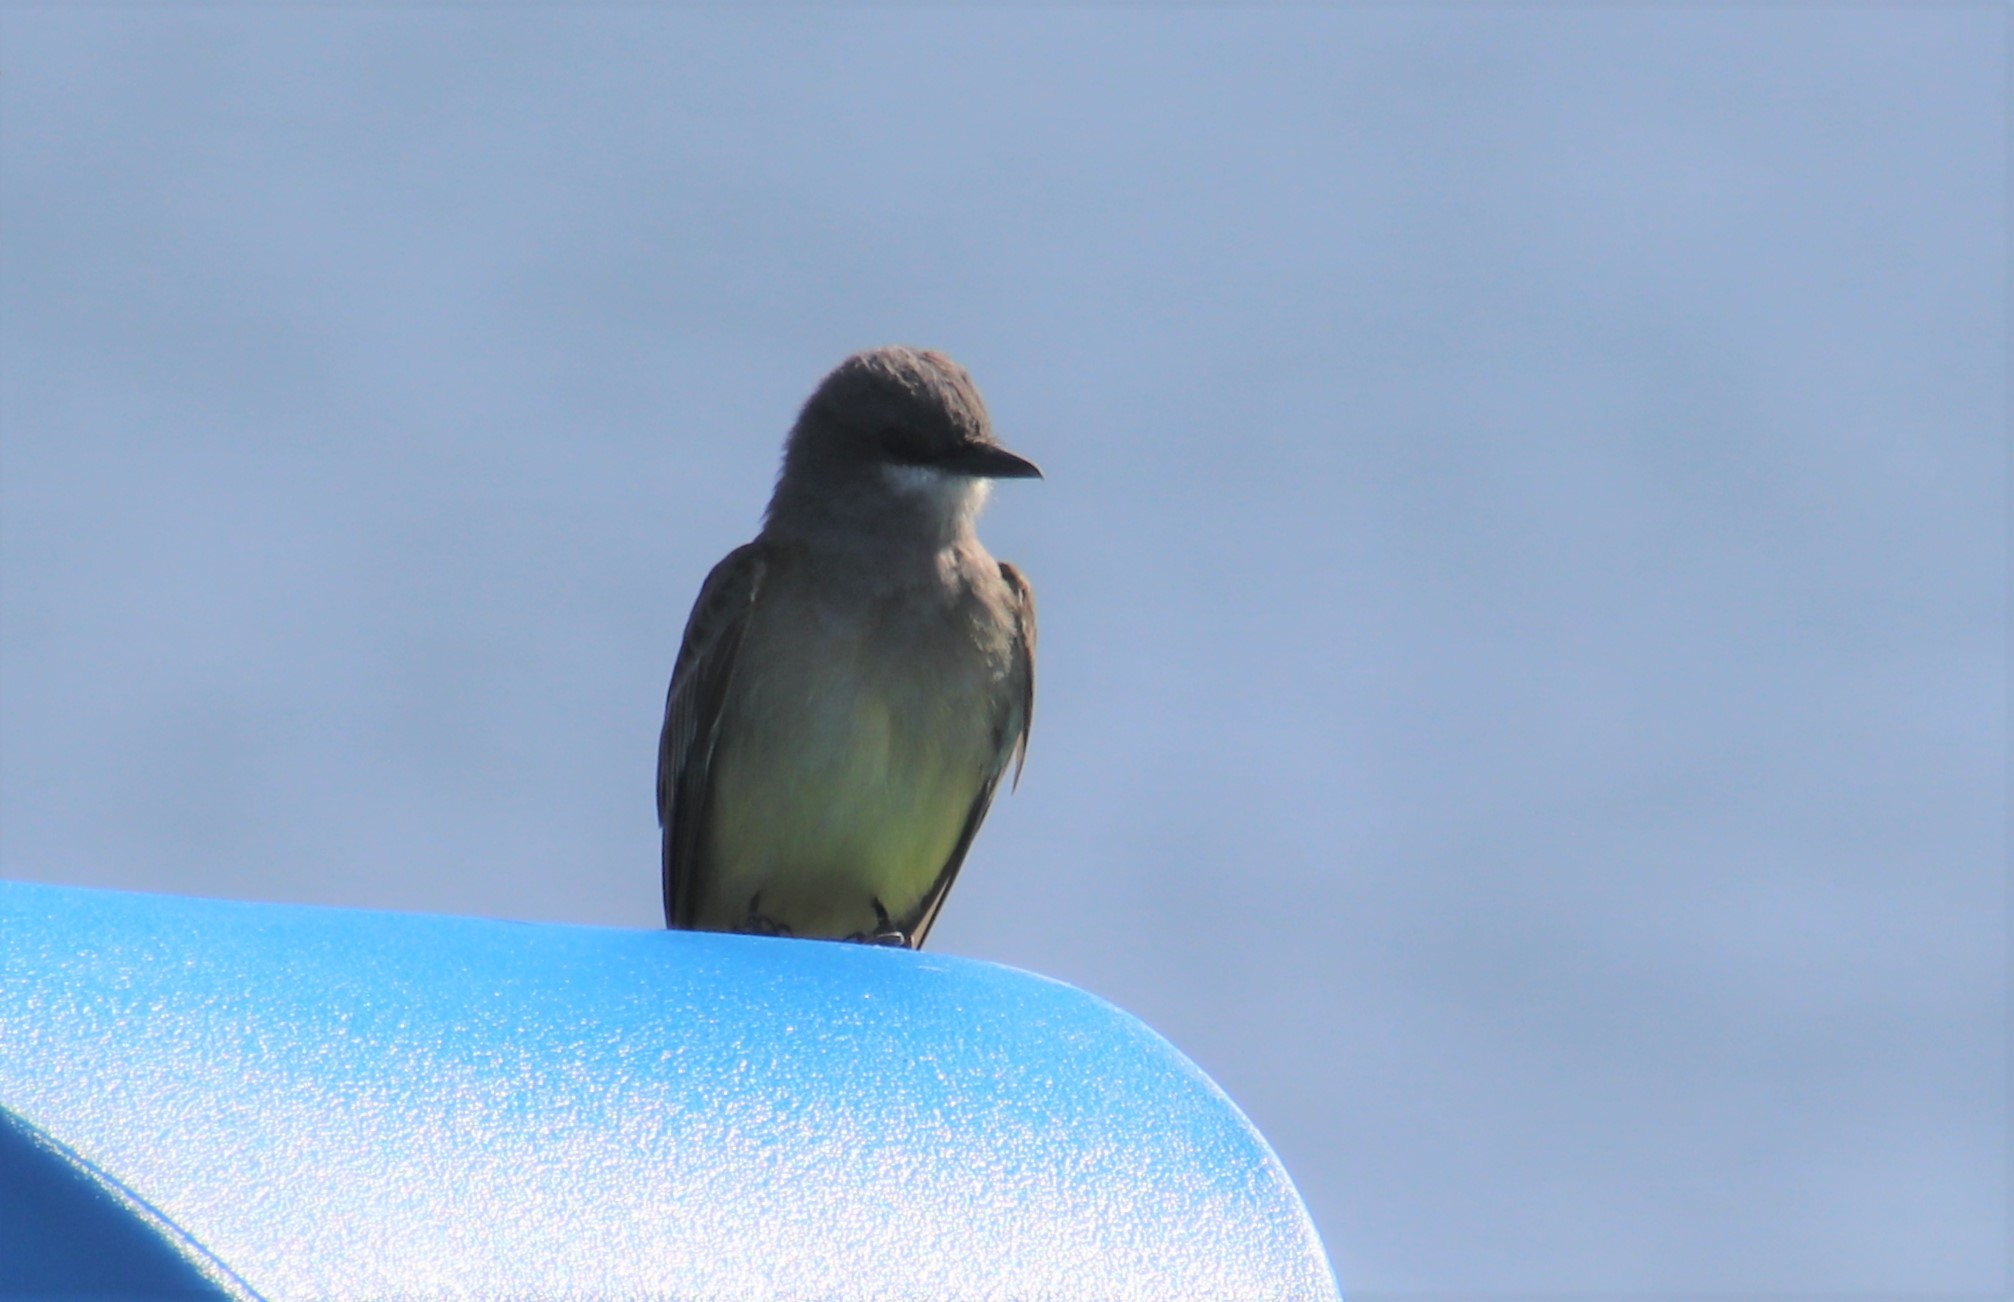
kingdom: Animalia
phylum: Chordata
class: Aves
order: Passeriformes
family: Tyrannidae
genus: Tyrannus
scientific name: Tyrannus vociferans
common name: Cassin's kingbird
